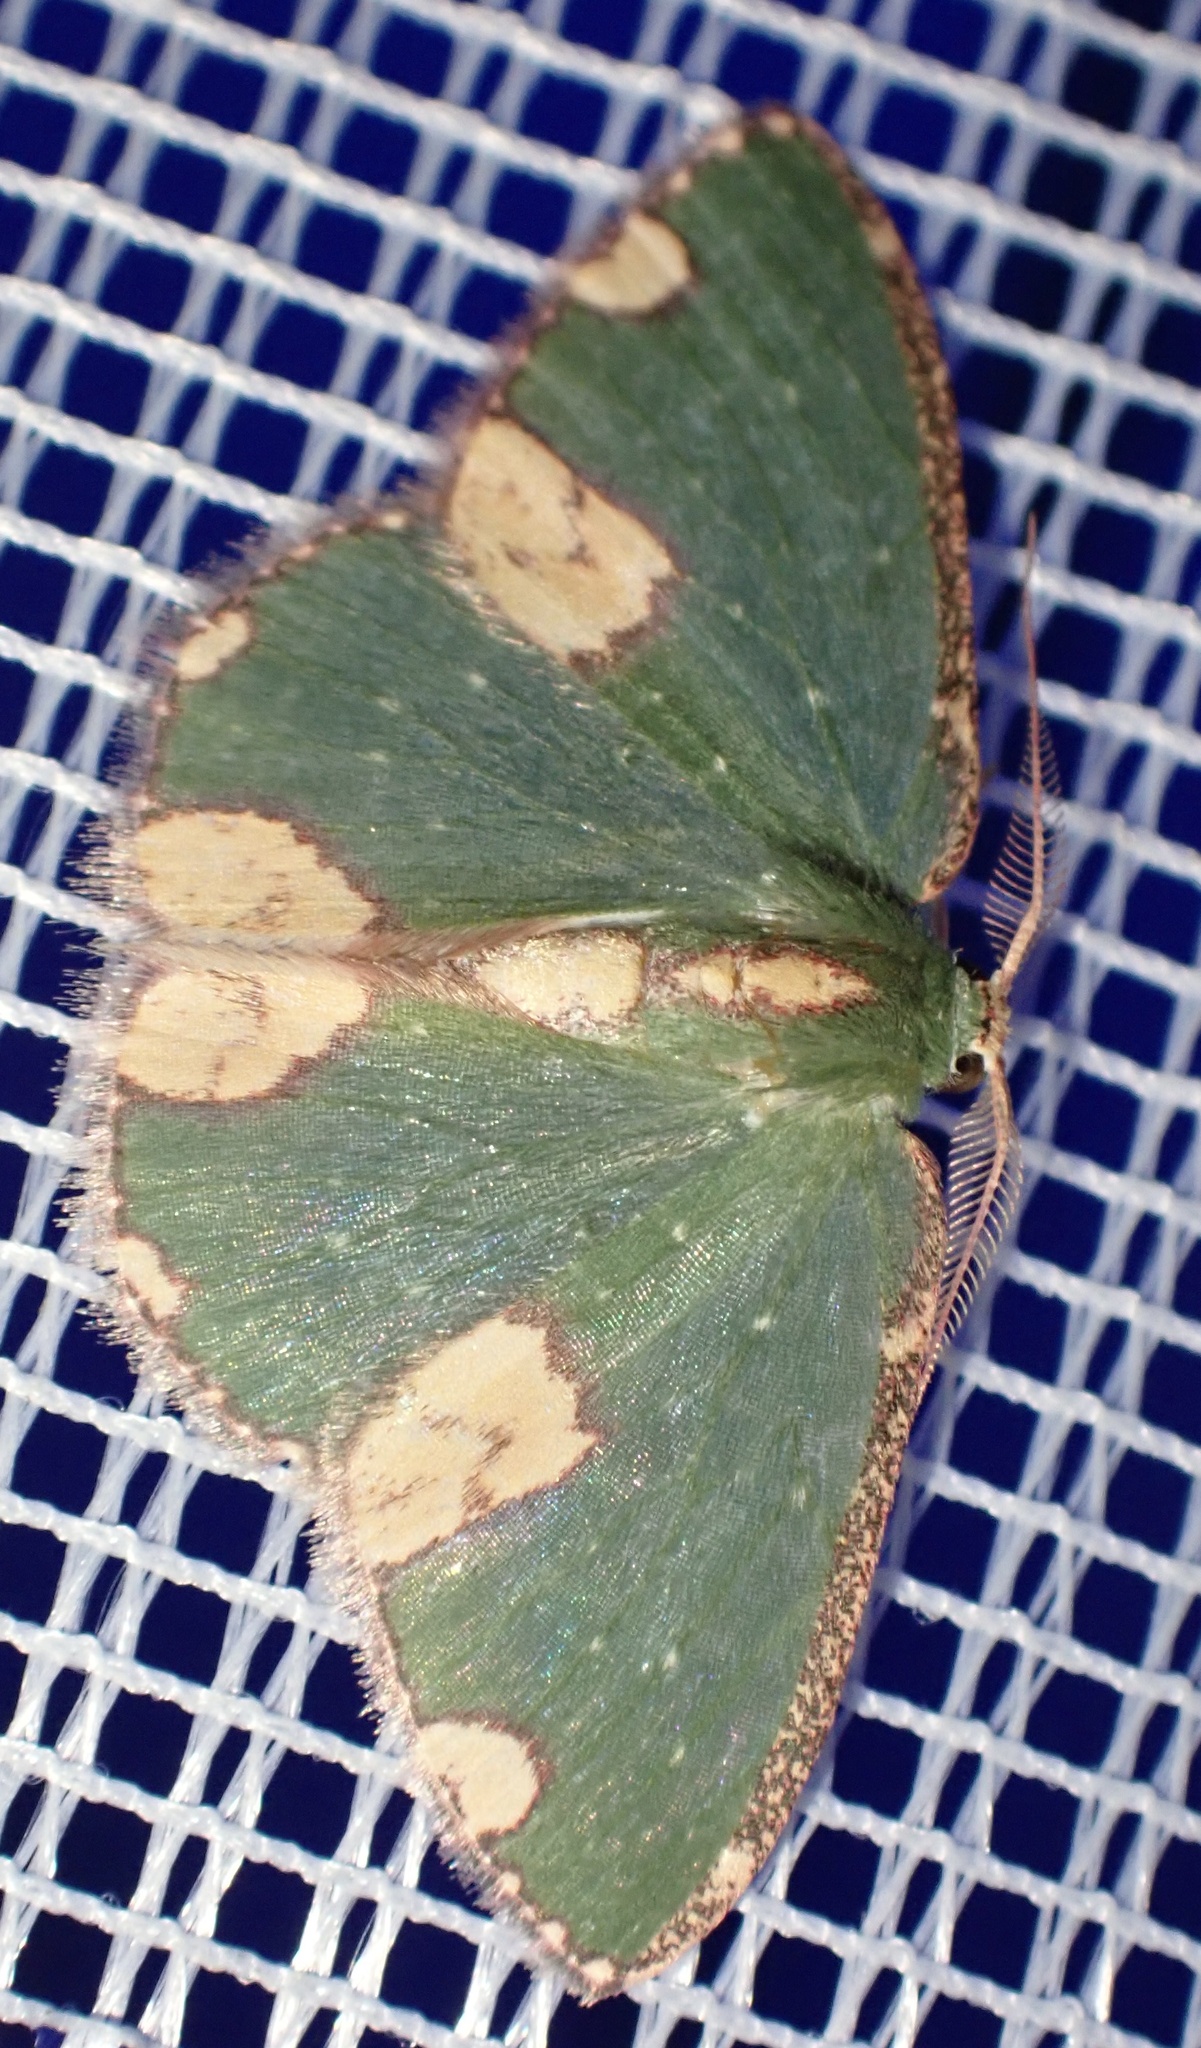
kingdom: Animalia
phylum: Arthropoda
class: Insecta
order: Lepidoptera
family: Geometridae
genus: Oxychora
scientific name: Oxychora batis
